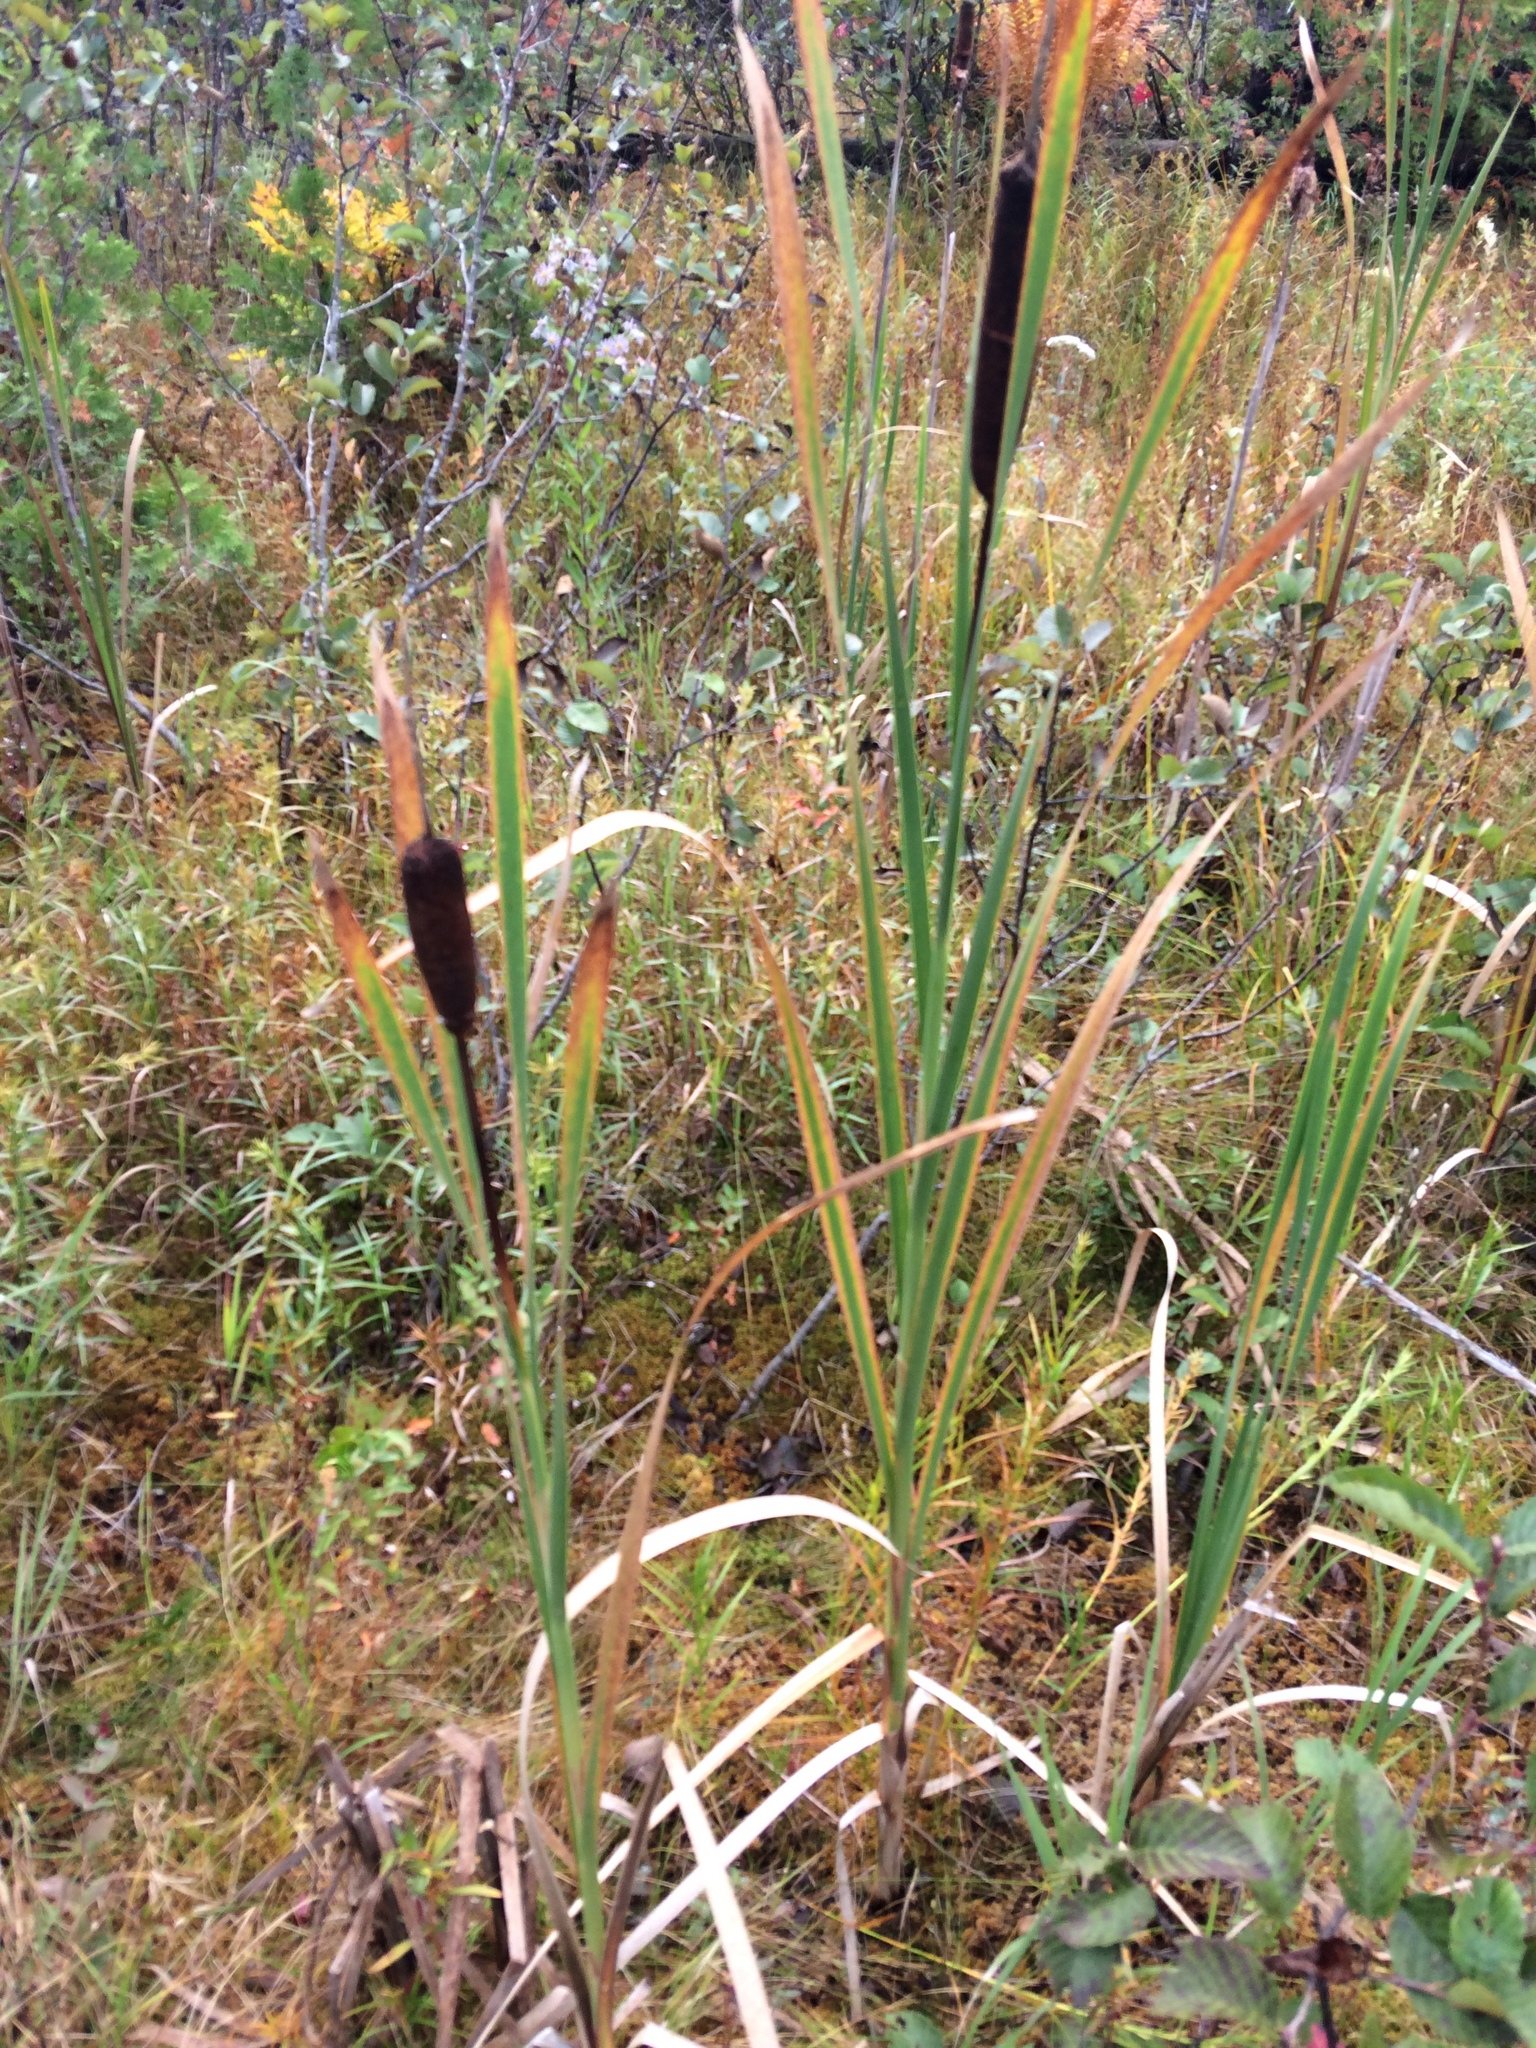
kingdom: Plantae
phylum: Tracheophyta
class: Liliopsida
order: Poales
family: Typhaceae
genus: Typha
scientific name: Typha latifolia
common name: Broadleaf cattail
